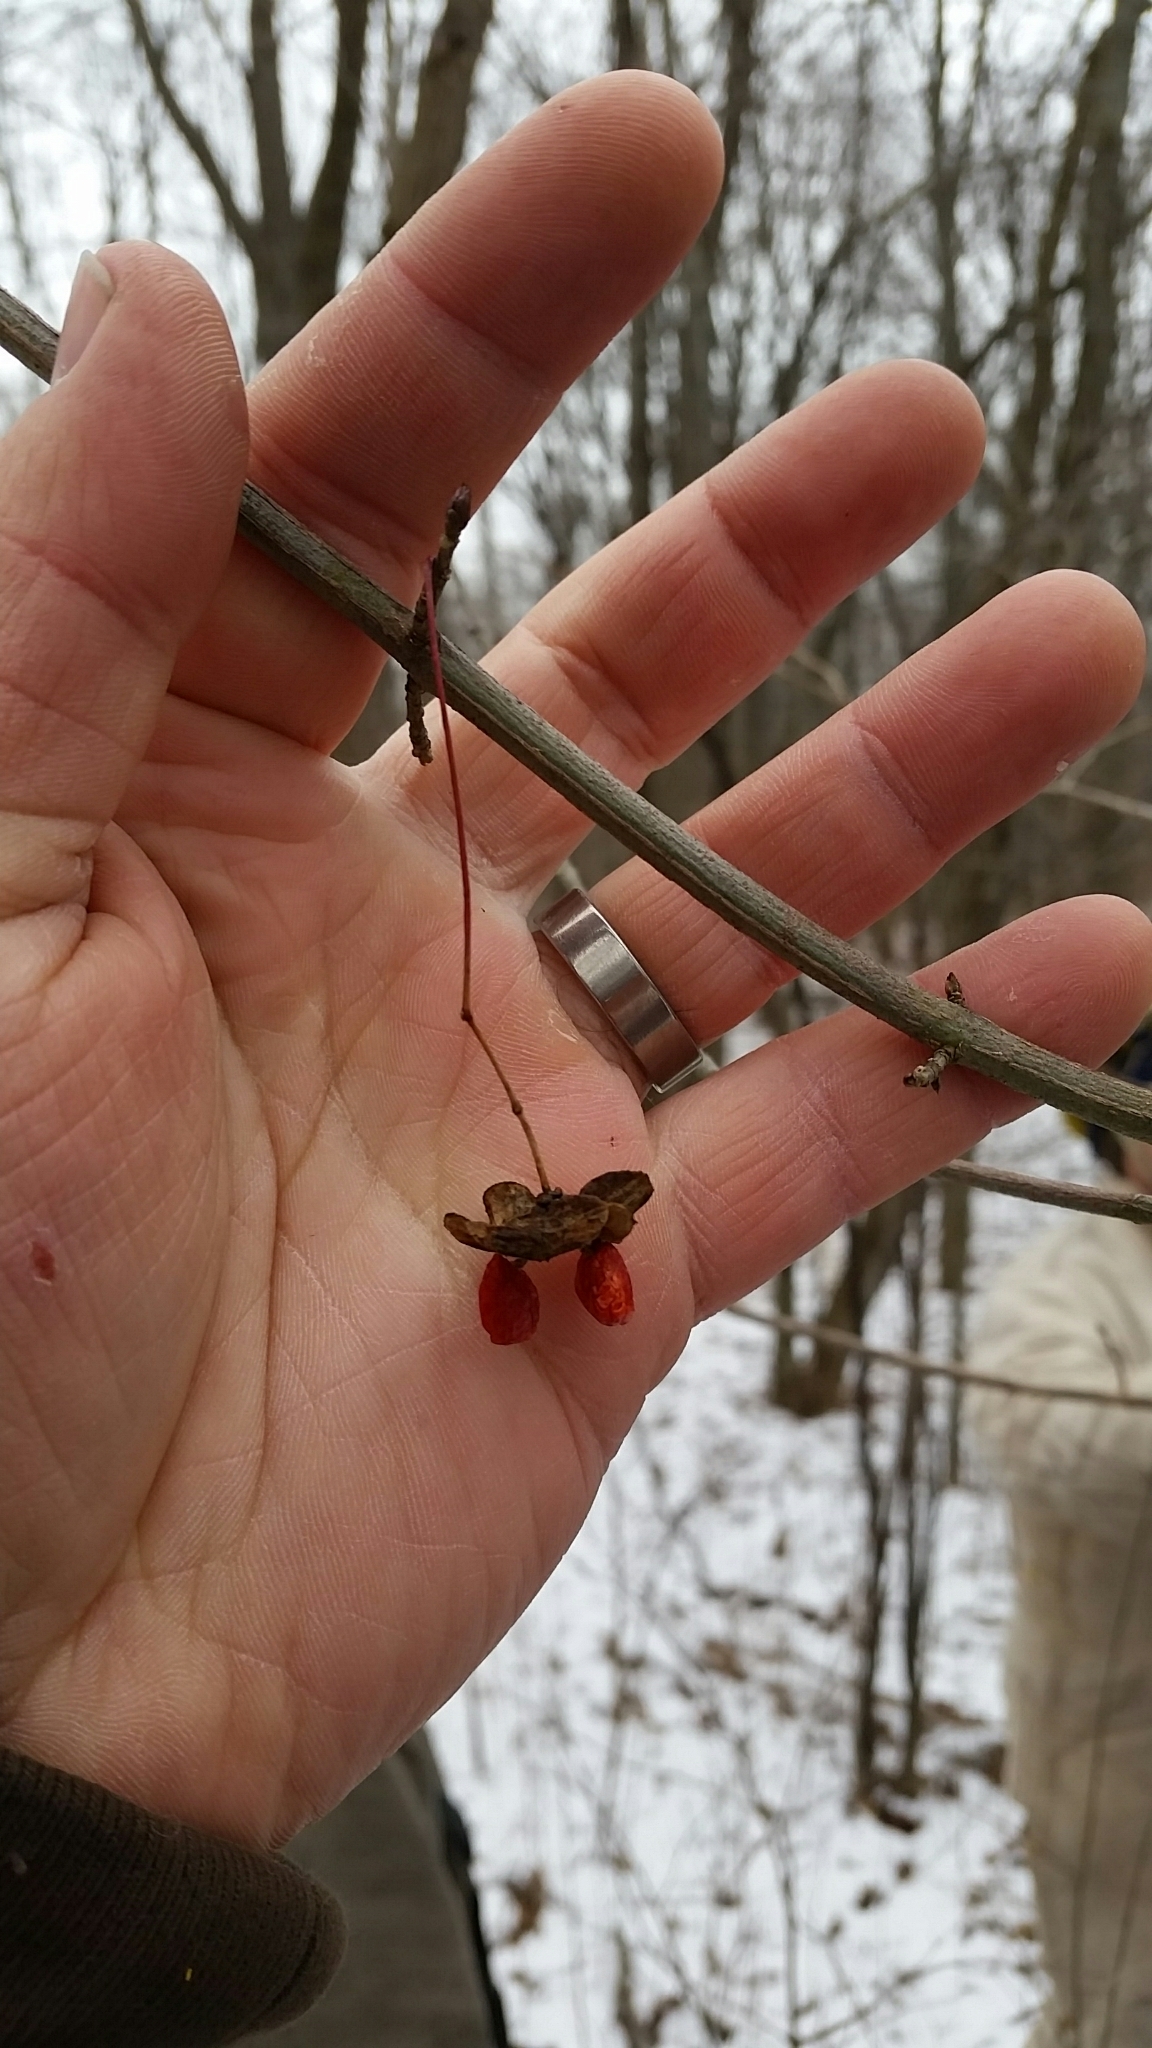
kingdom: Plantae
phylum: Tracheophyta
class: Magnoliopsida
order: Celastrales
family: Celastraceae
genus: Euonymus
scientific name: Euonymus atropurpureus
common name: Eastern wahoo
